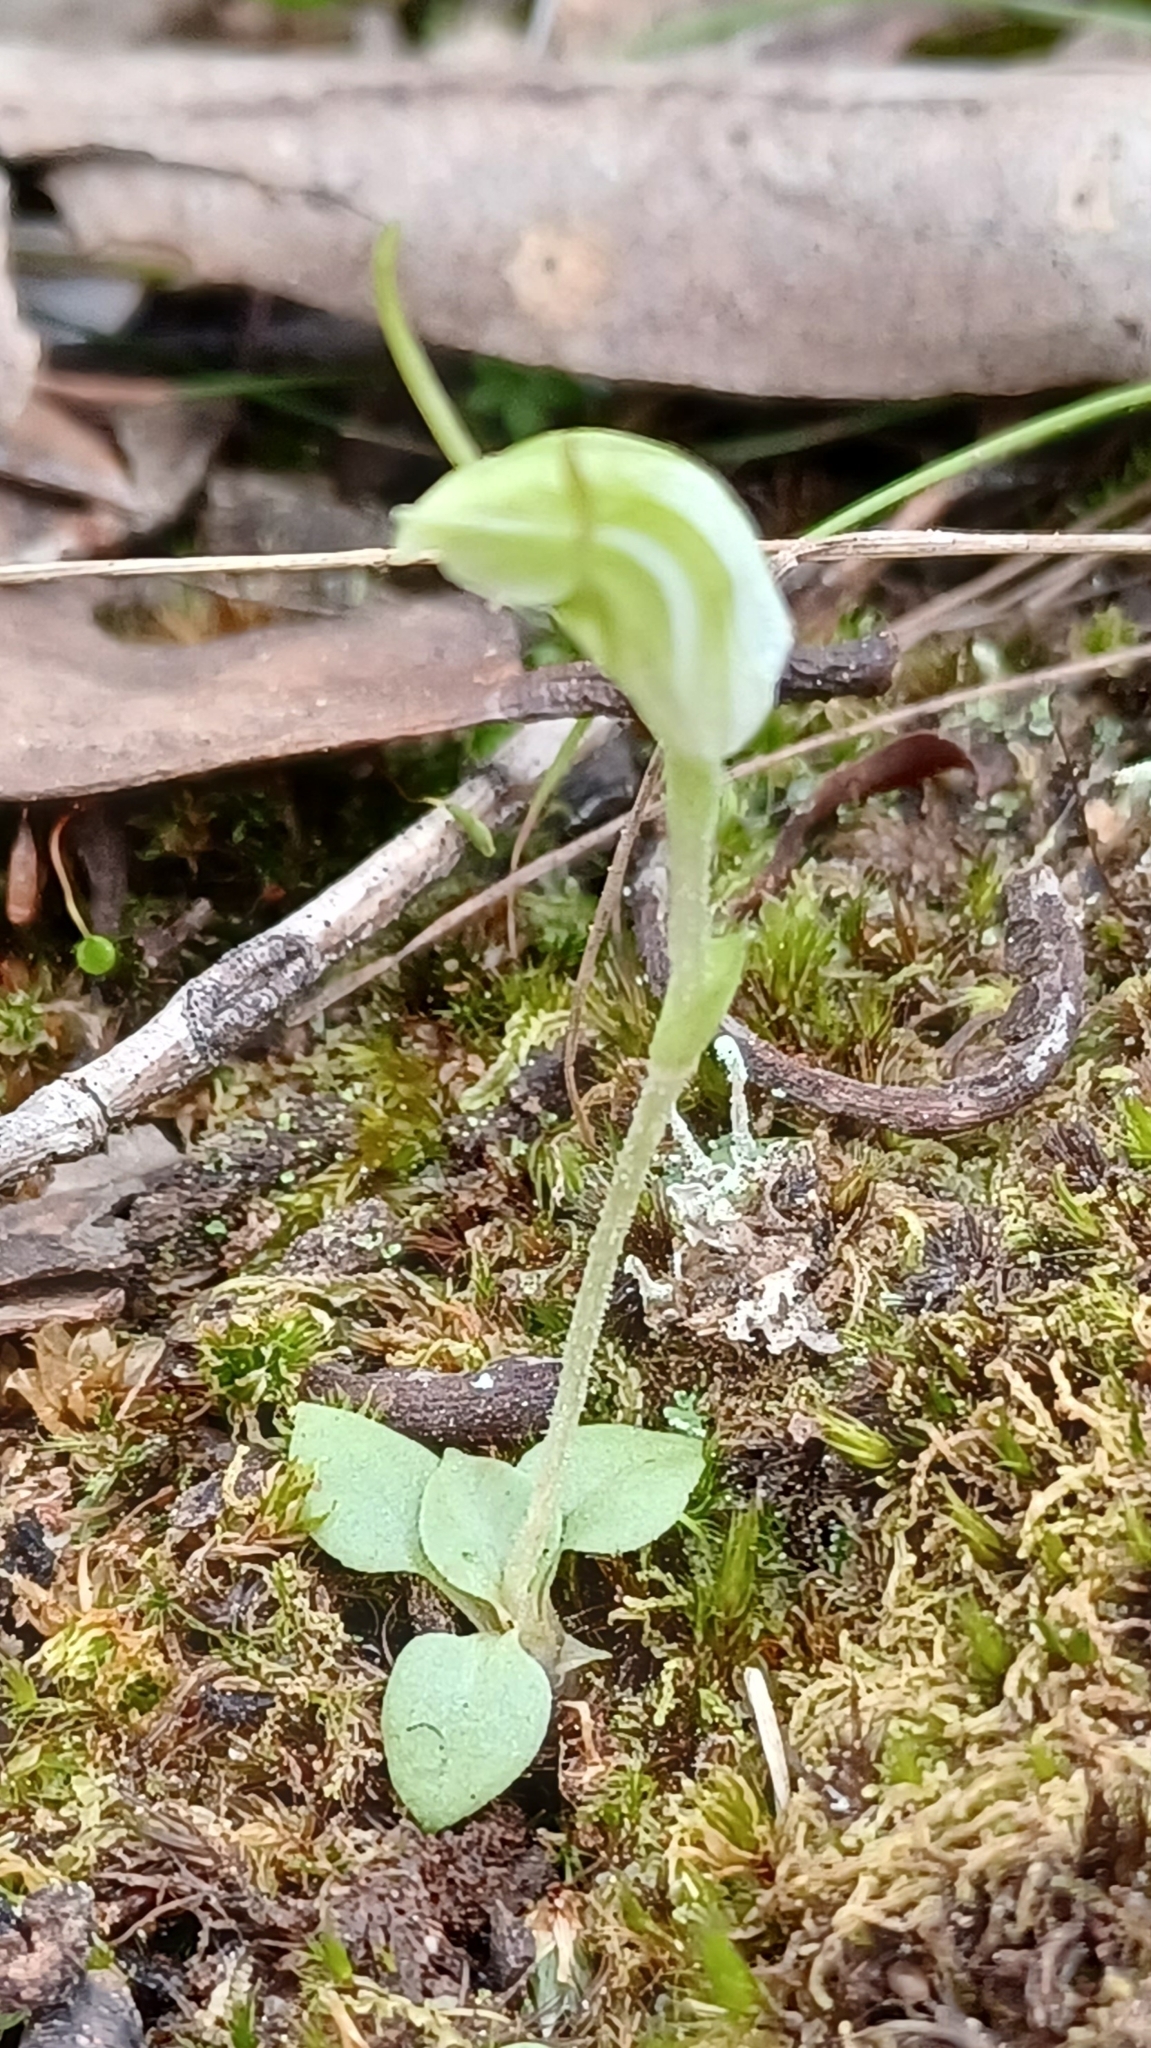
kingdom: Plantae
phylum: Tracheophyta
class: Liliopsida
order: Asparagales
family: Orchidaceae
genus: Pterostylis
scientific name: Pterostylis nana
